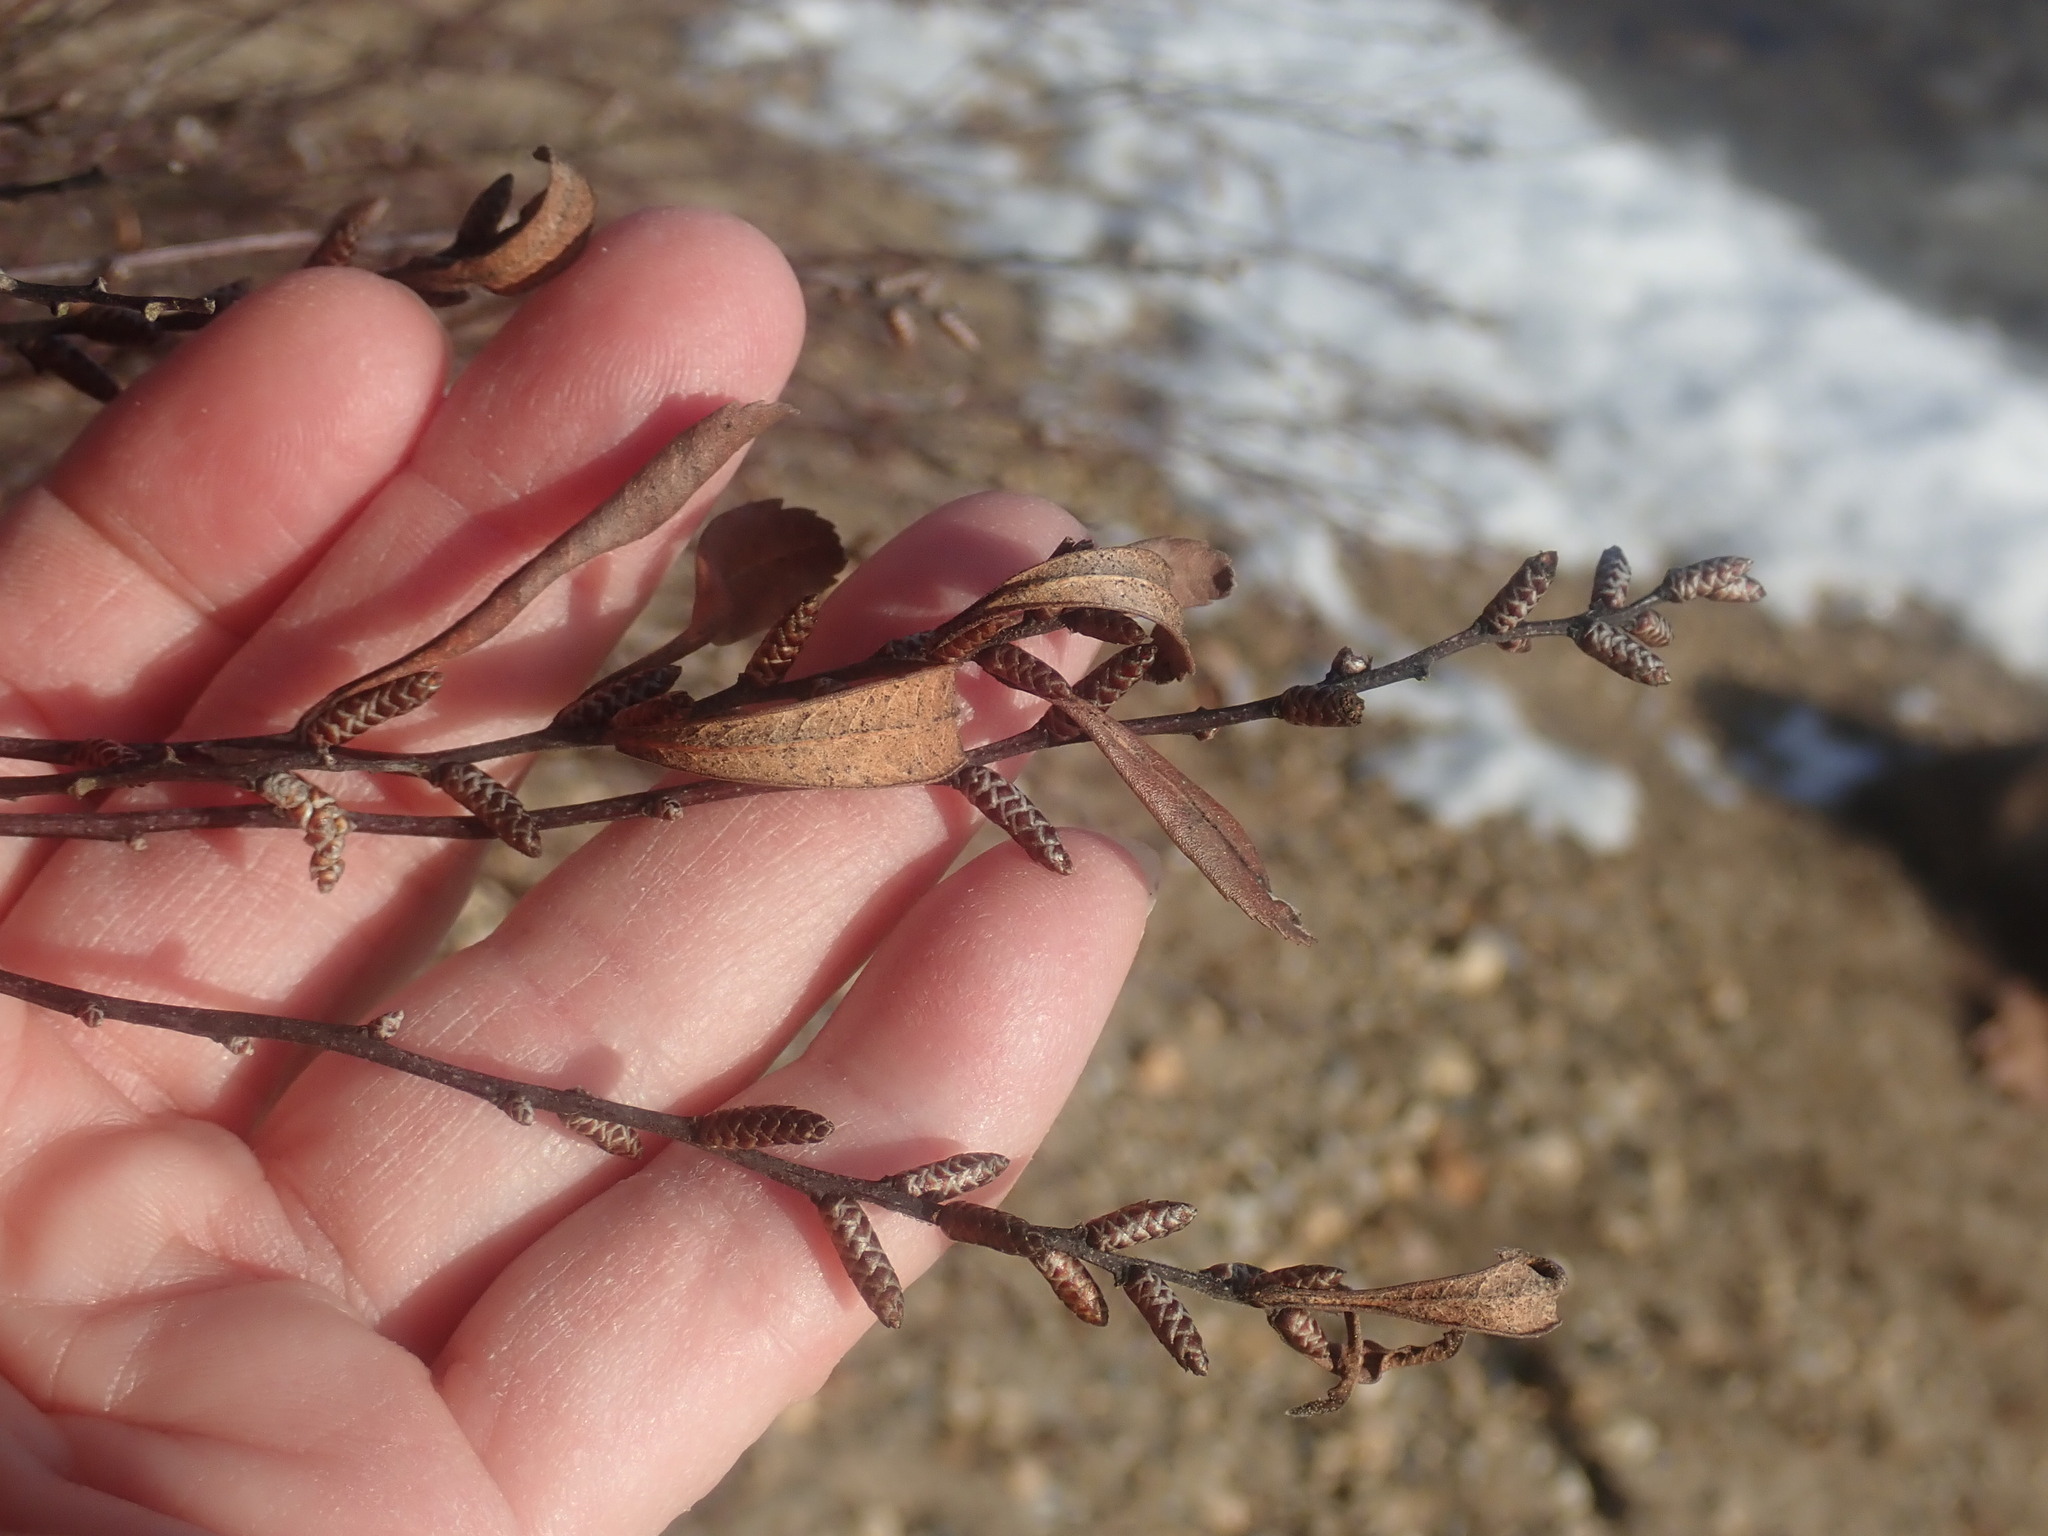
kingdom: Plantae
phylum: Tracheophyta
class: Magnoliopsida
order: Fagales
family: Myricaceae
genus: Myrica
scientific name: Myrica gale
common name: Sweet gale
